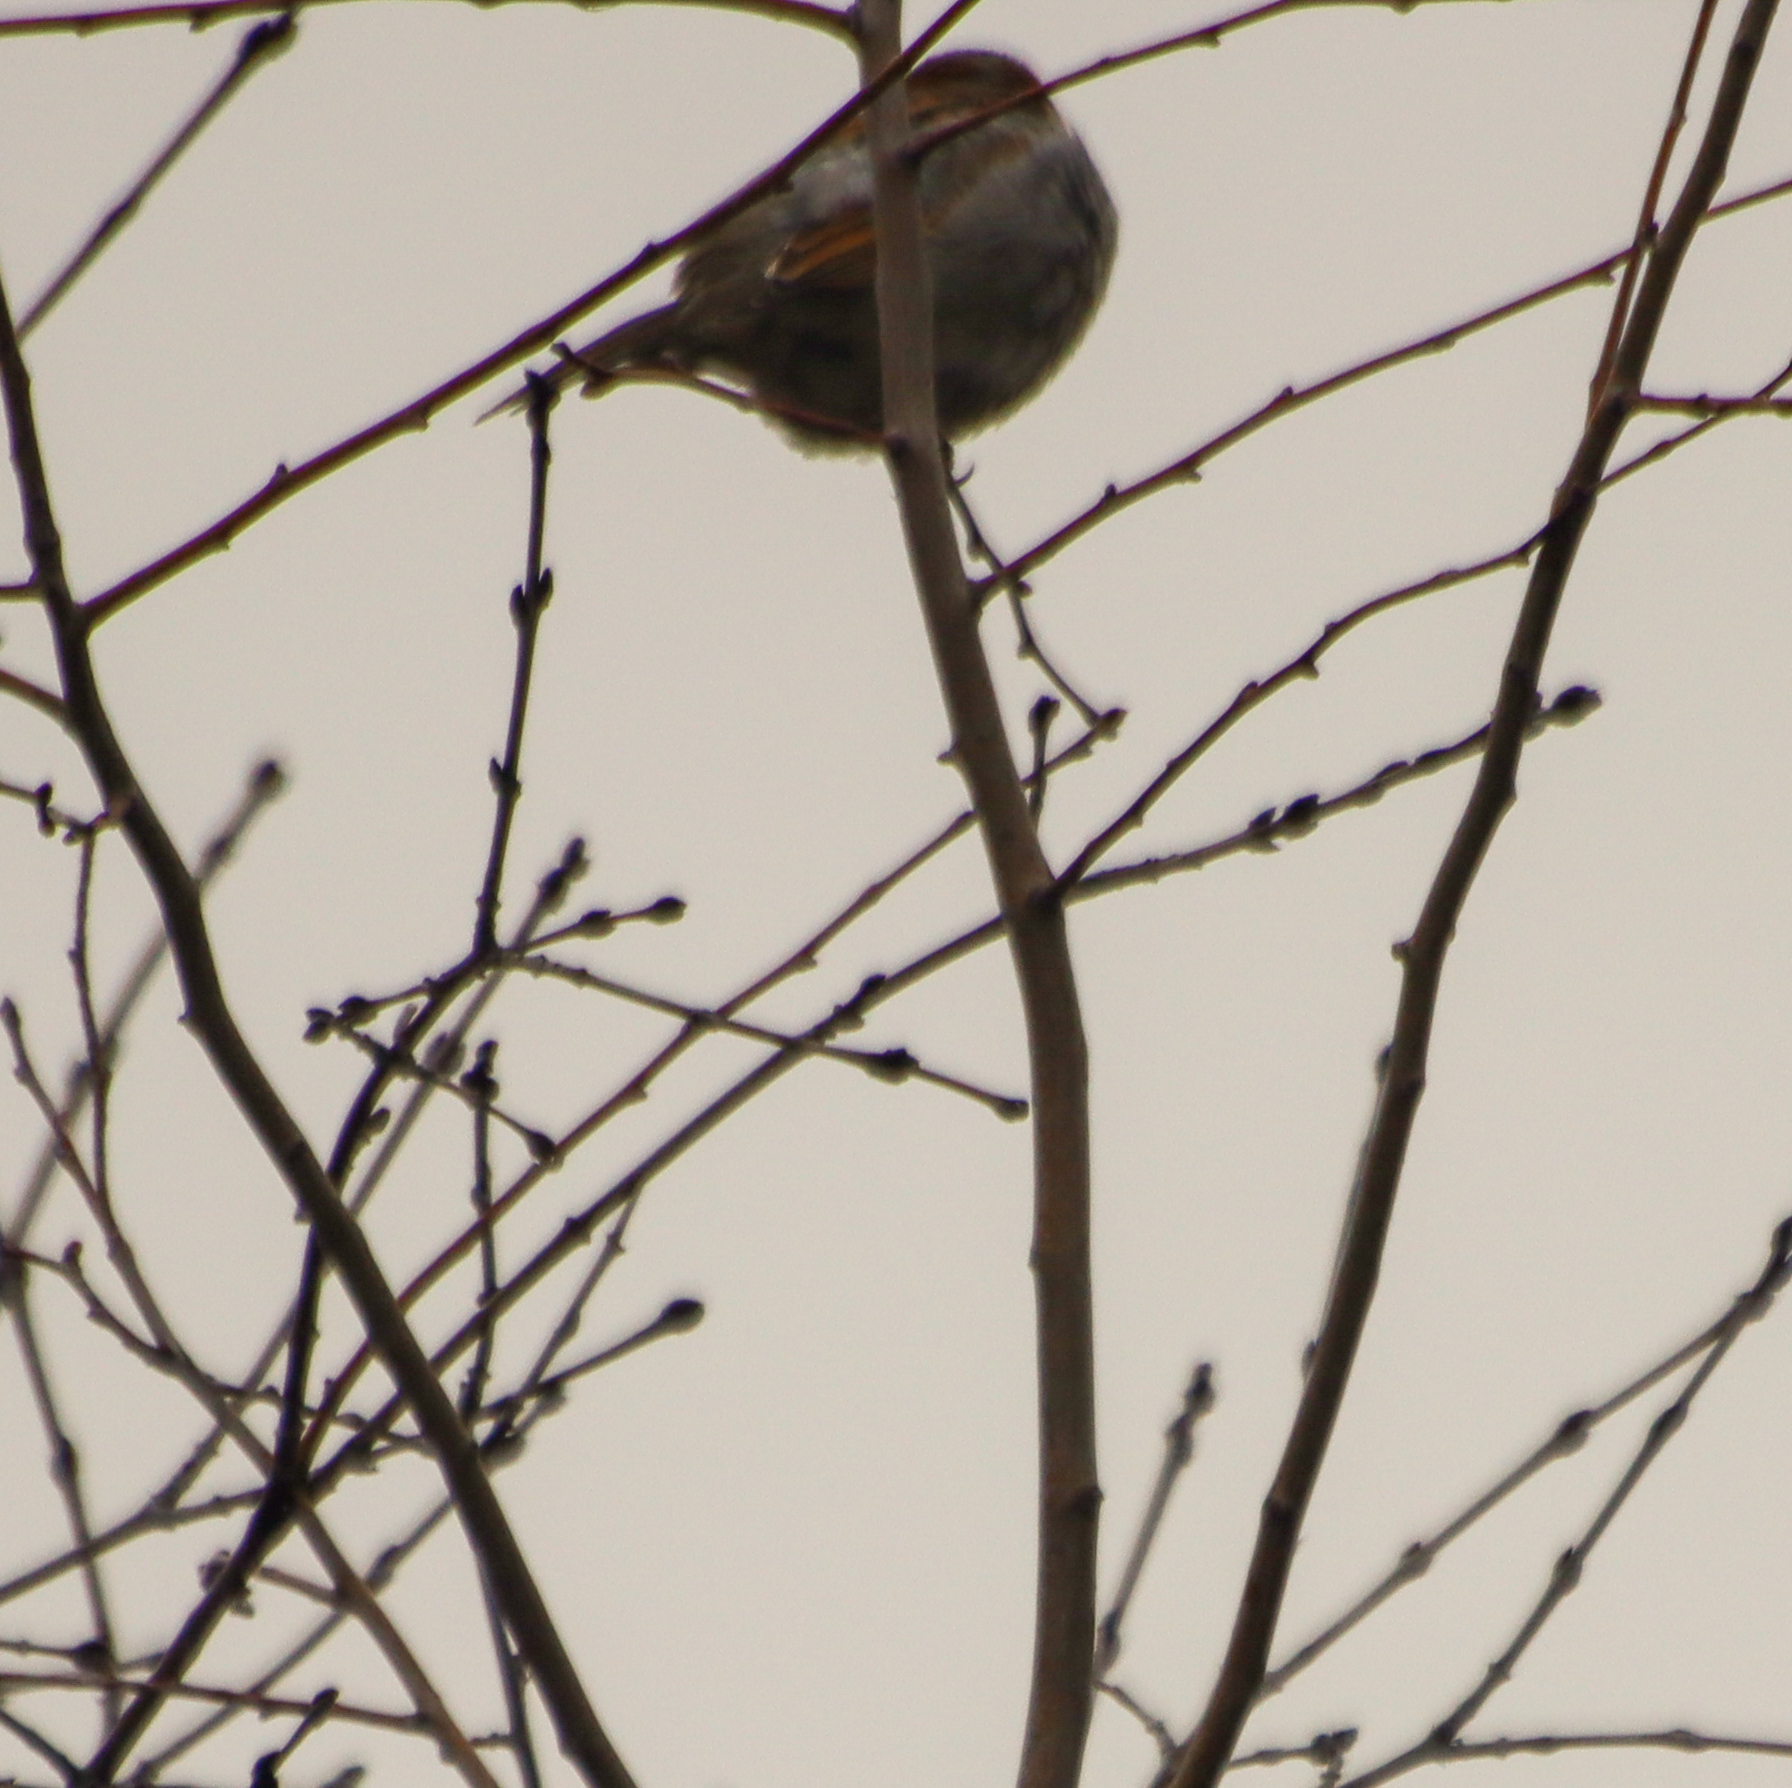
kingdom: Animalia
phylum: Chordata
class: Aves
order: Passeriformes
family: Passeridae
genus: Passer
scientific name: Passer domesticus
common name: House sparrow
